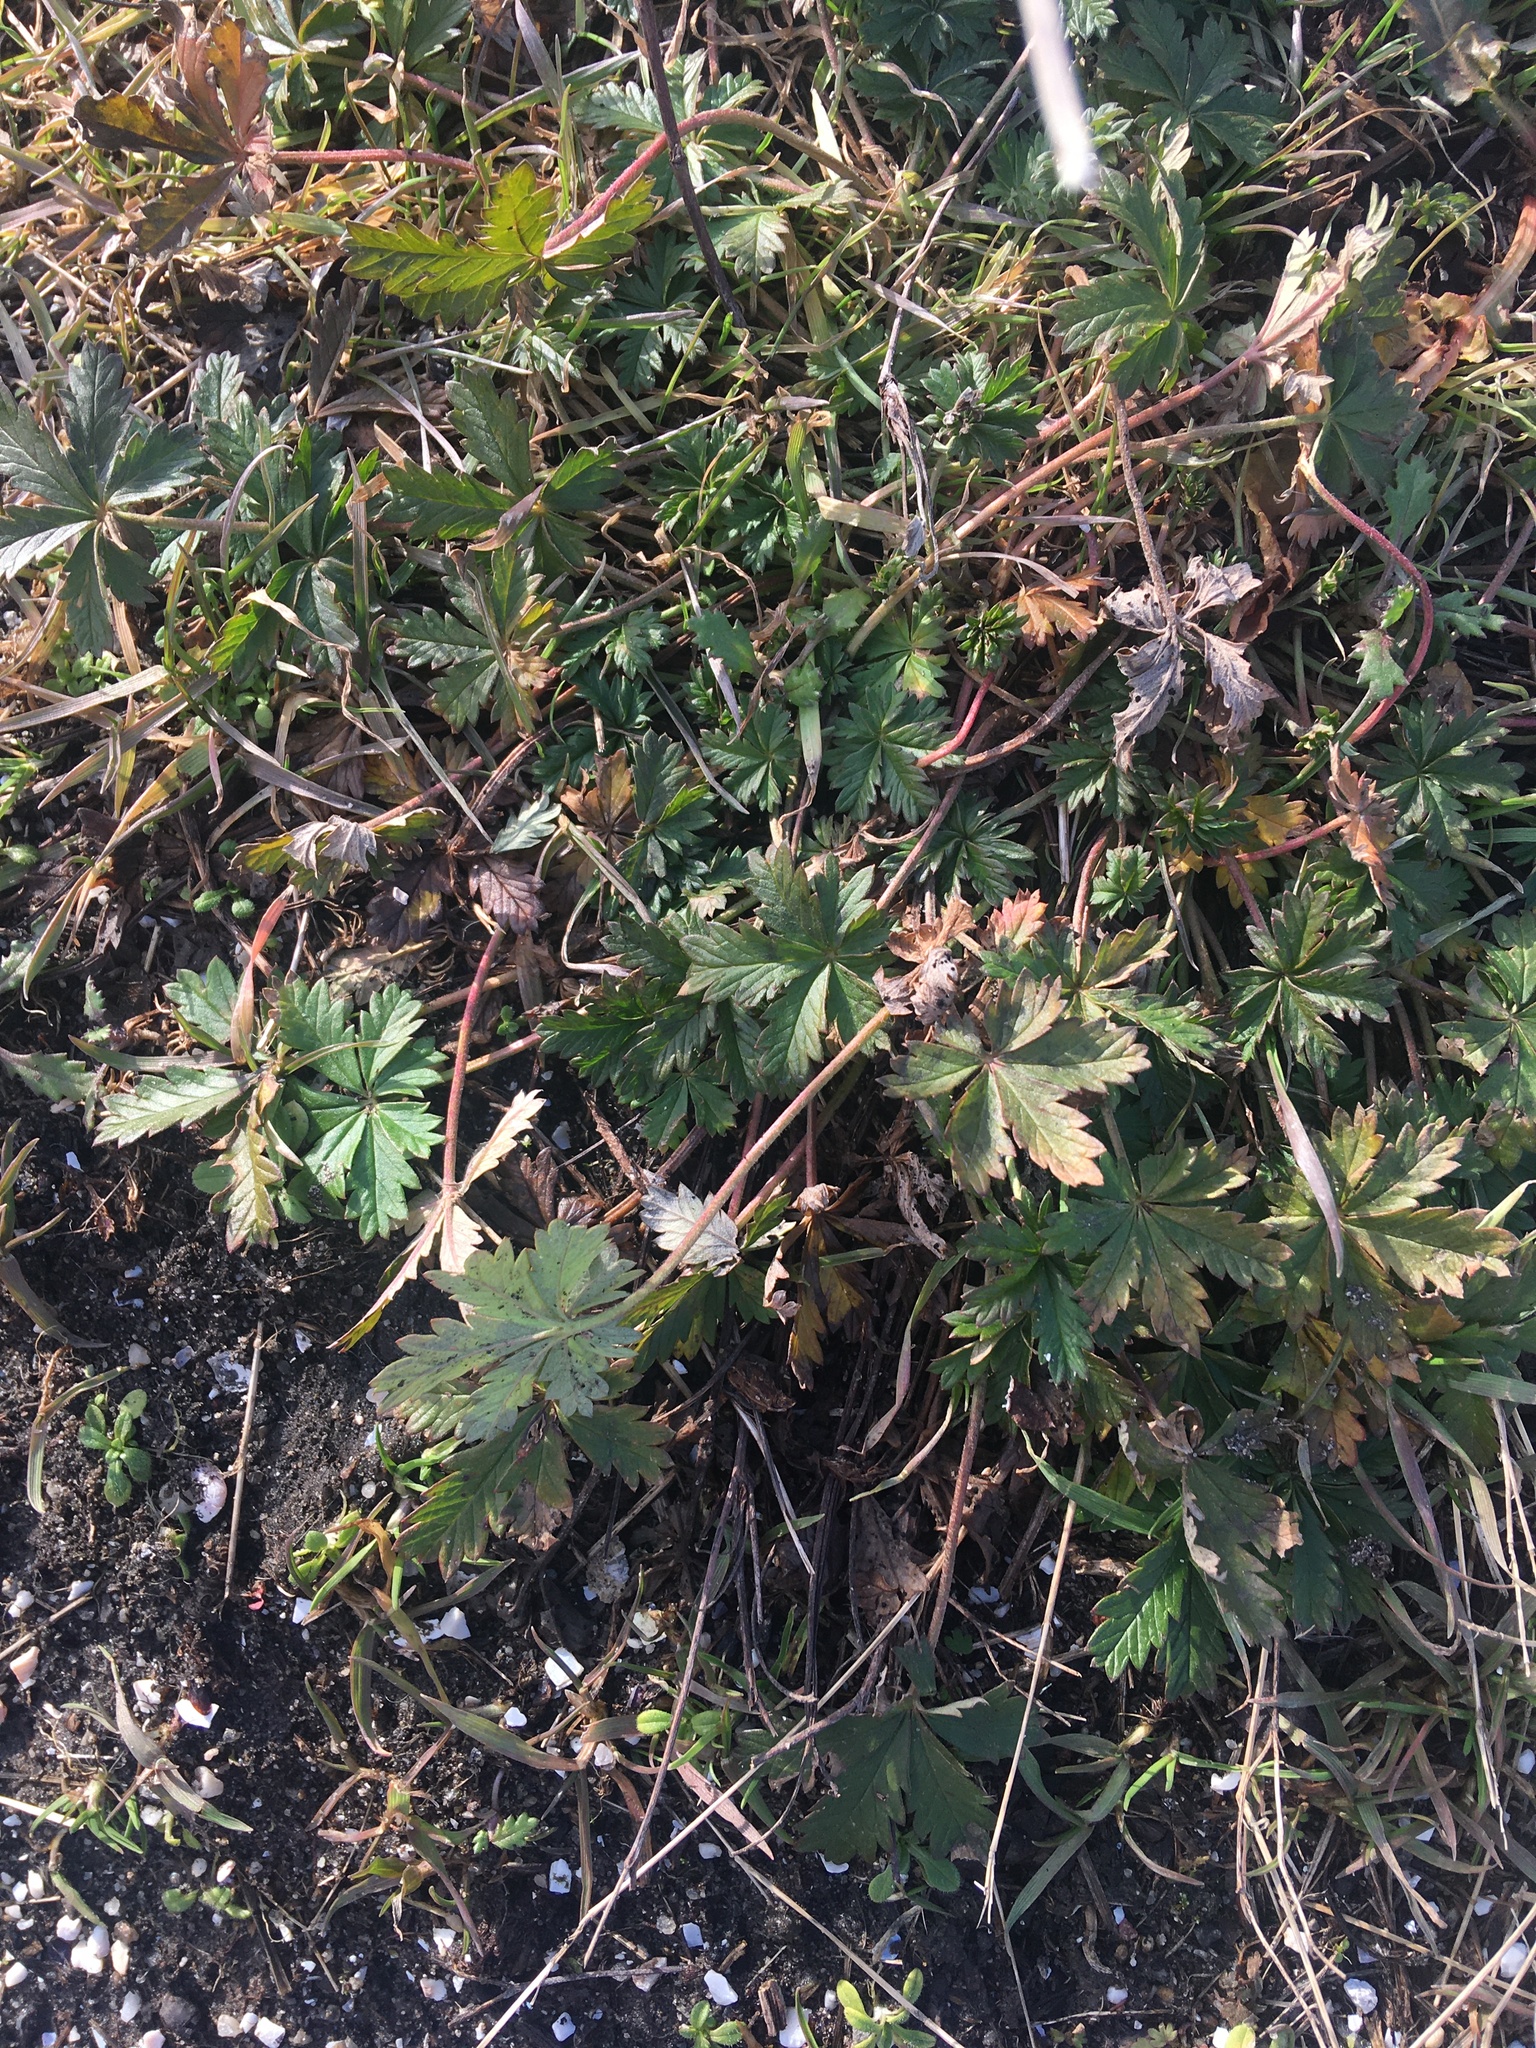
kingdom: Plantae
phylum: Tracheophyta
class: Magnoliopsida
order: Rosales
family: Rosaceae
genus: Potentilla
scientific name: Potentilla argentea
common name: Hoary cinquefoil
